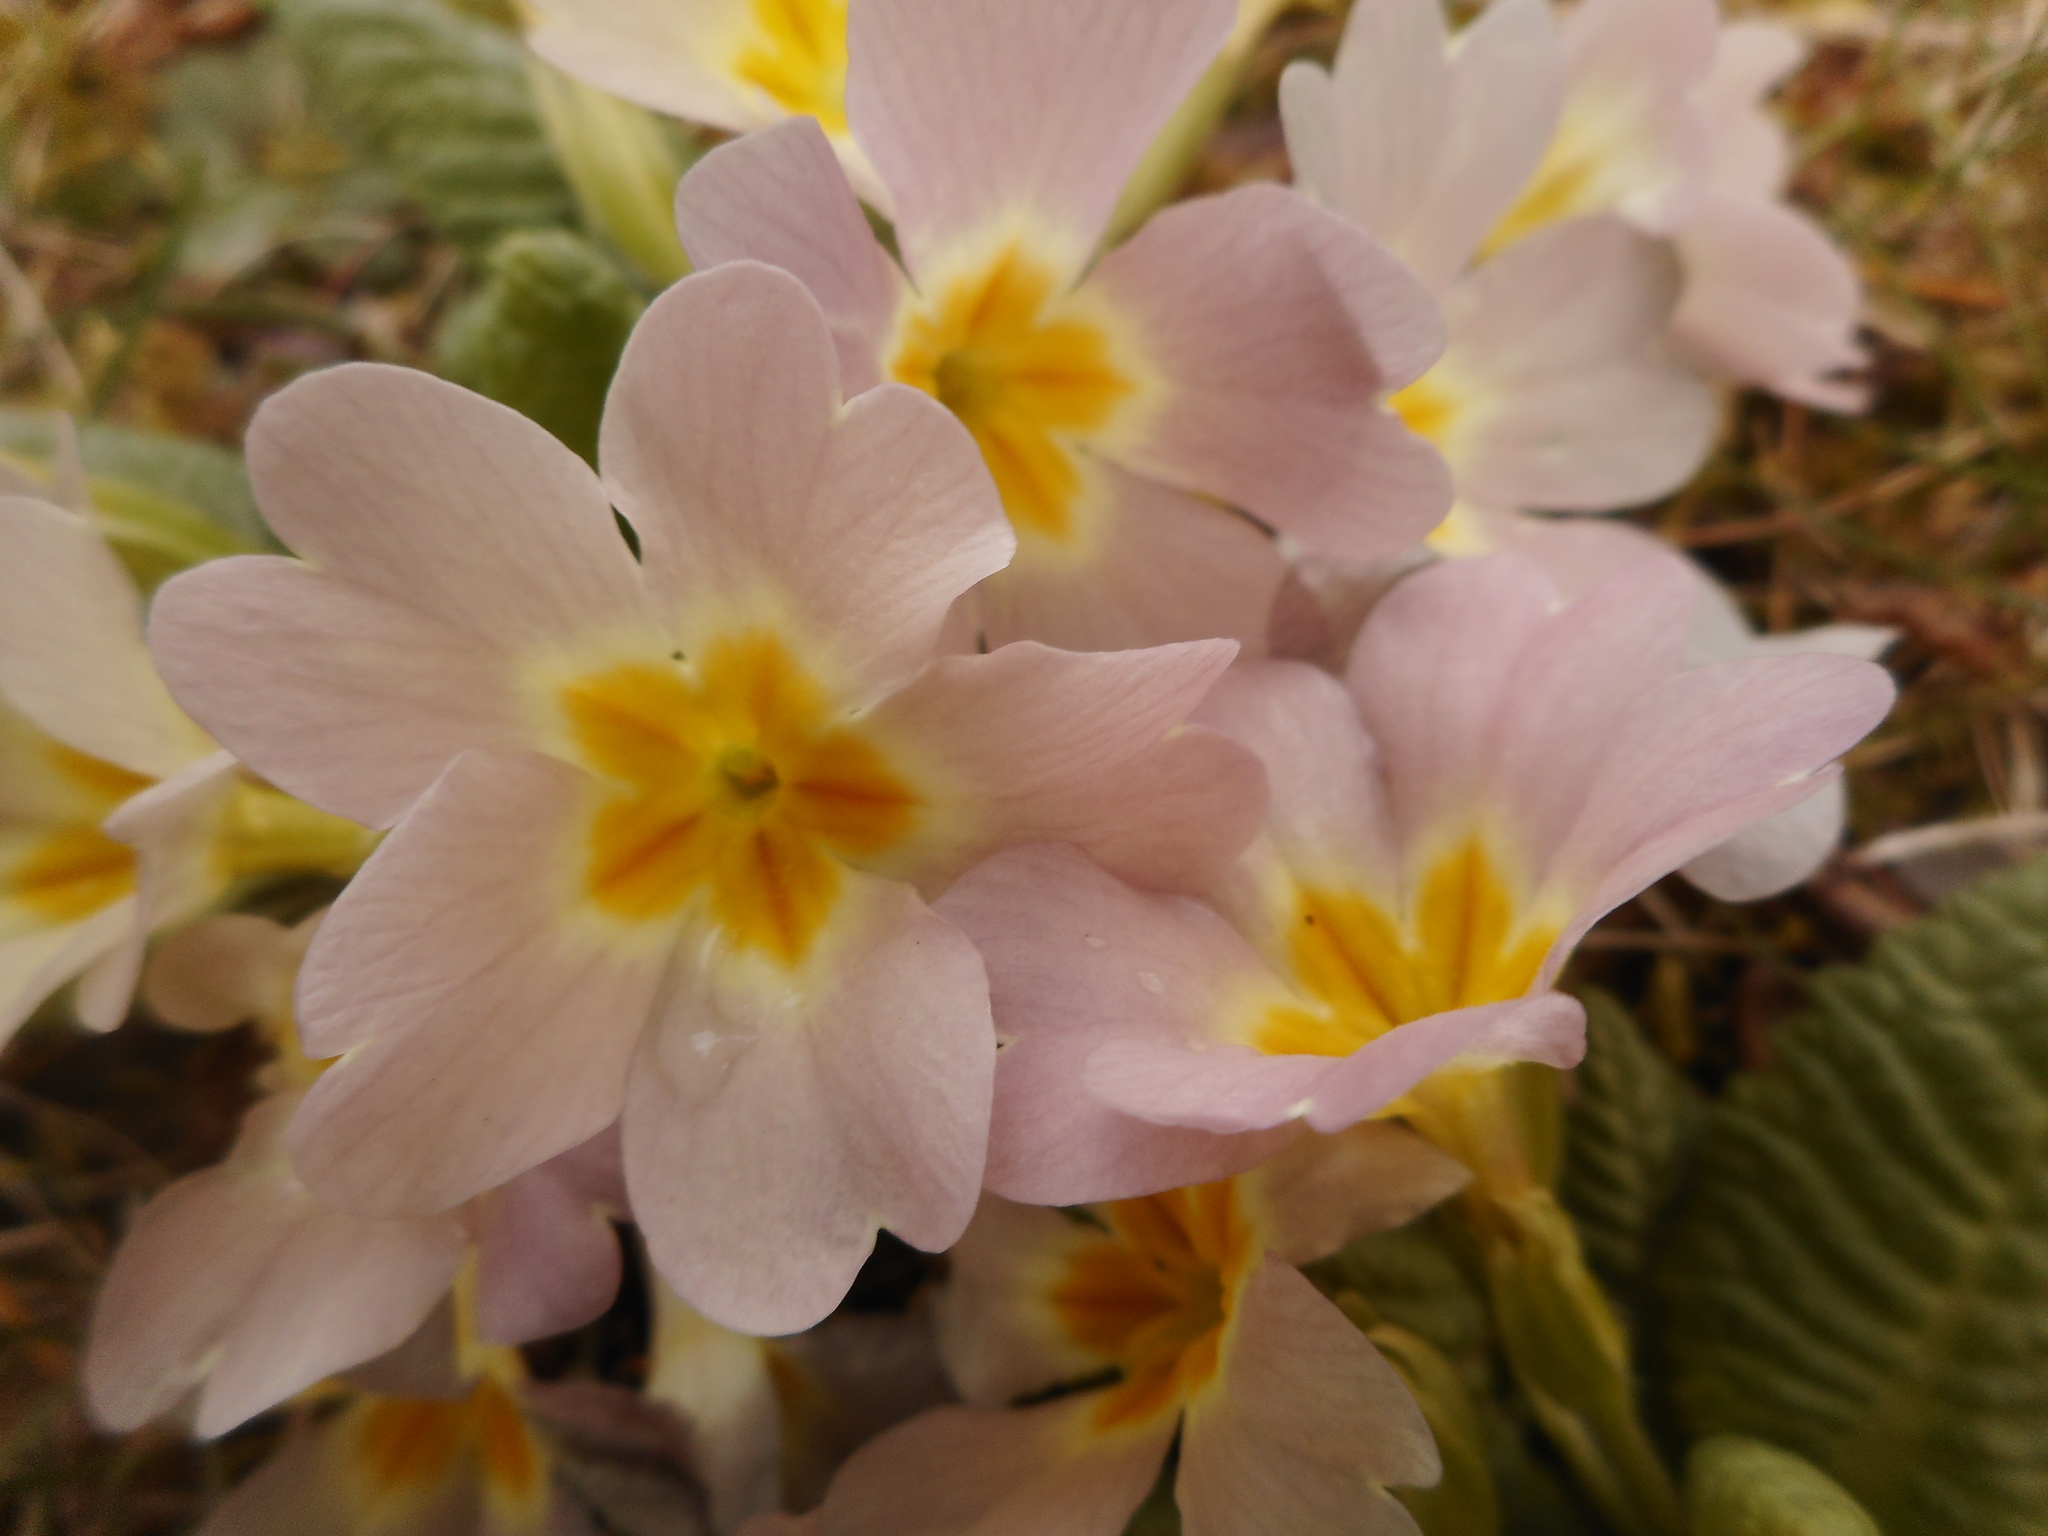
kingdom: Plantae
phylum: Tracheophyta
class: Magnoliopsida
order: Ericales
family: Primulaceae
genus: Primula
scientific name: Primula vulgaris
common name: Primrose
